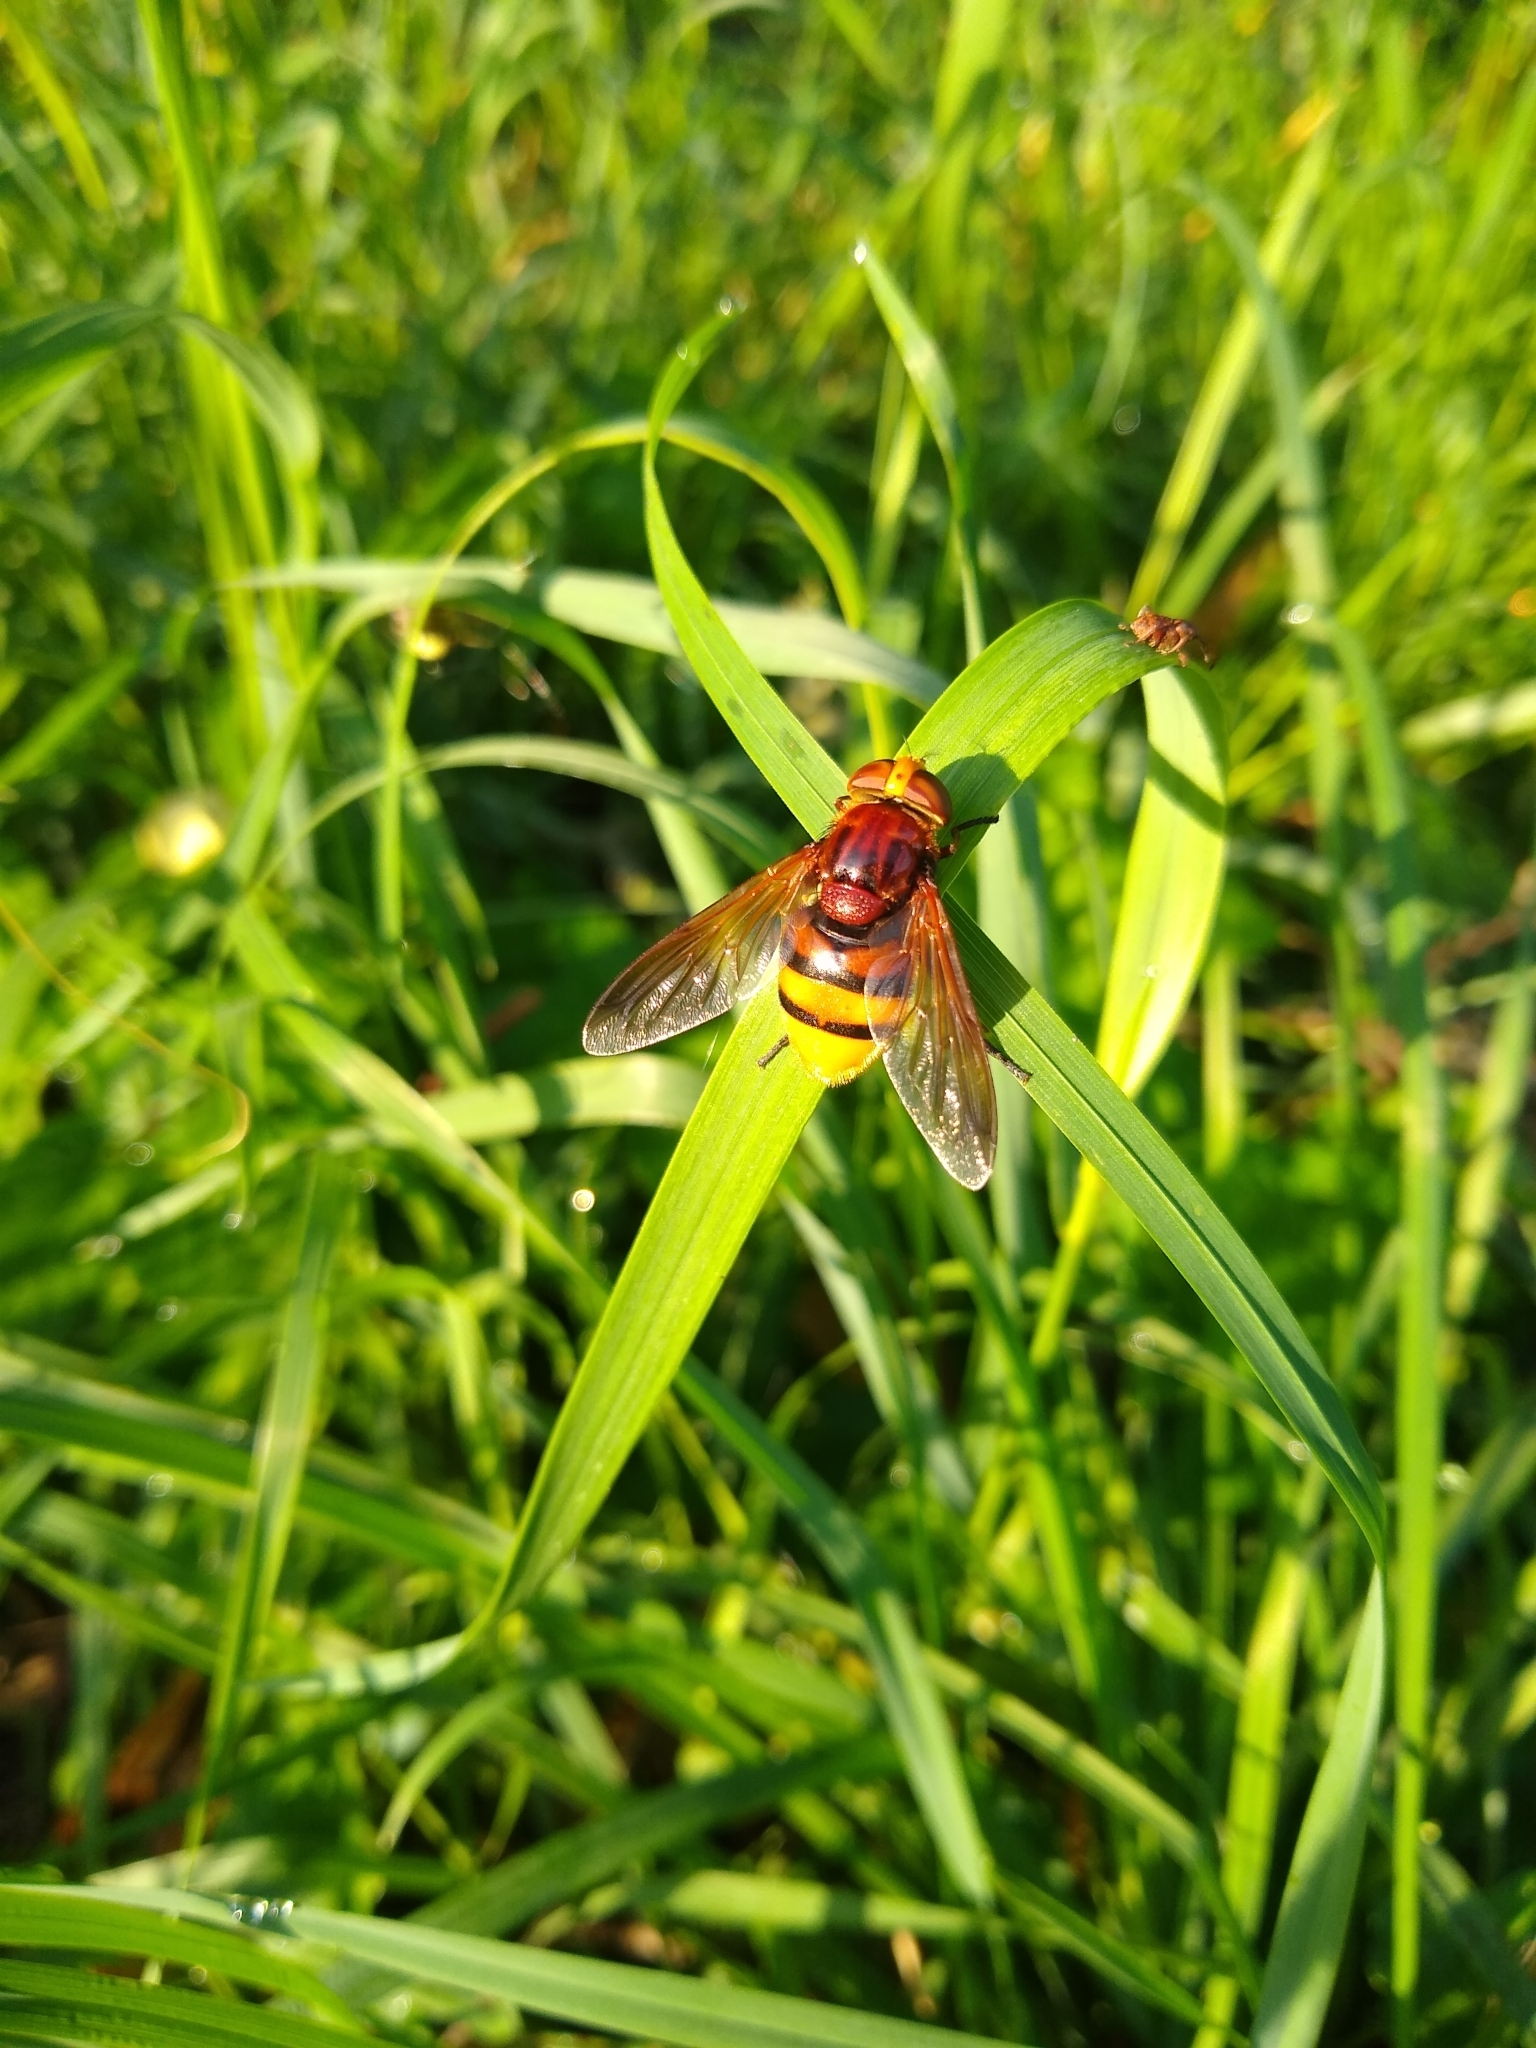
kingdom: Animalia
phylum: Arthropoda
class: Insecta
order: Diptera
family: Syrphidae
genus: Volucella
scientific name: Volucella zonaria
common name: Hornet hoverfly
